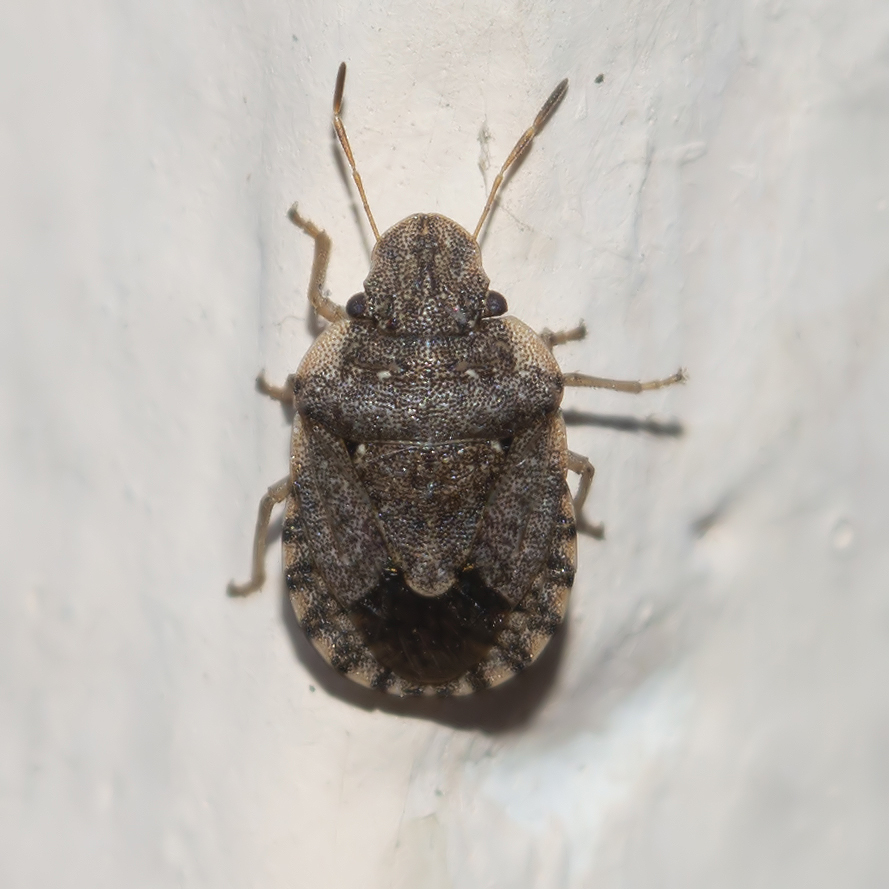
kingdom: Animalia
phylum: Arthropoda
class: Insecta
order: Hemiptera
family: Pentatomidae
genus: Sciocoris
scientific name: Sciocoris sideritidis
